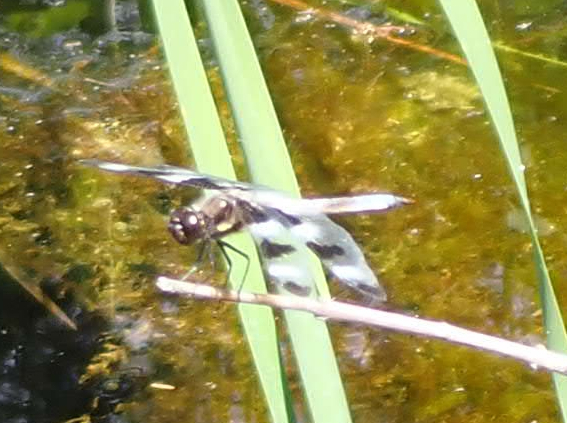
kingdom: Animalia
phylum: Arthropoda
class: Insecta
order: Odonata
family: Libellulidae
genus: Libellula
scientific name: Libellula pulchella
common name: Twelve-spotted skimmer
